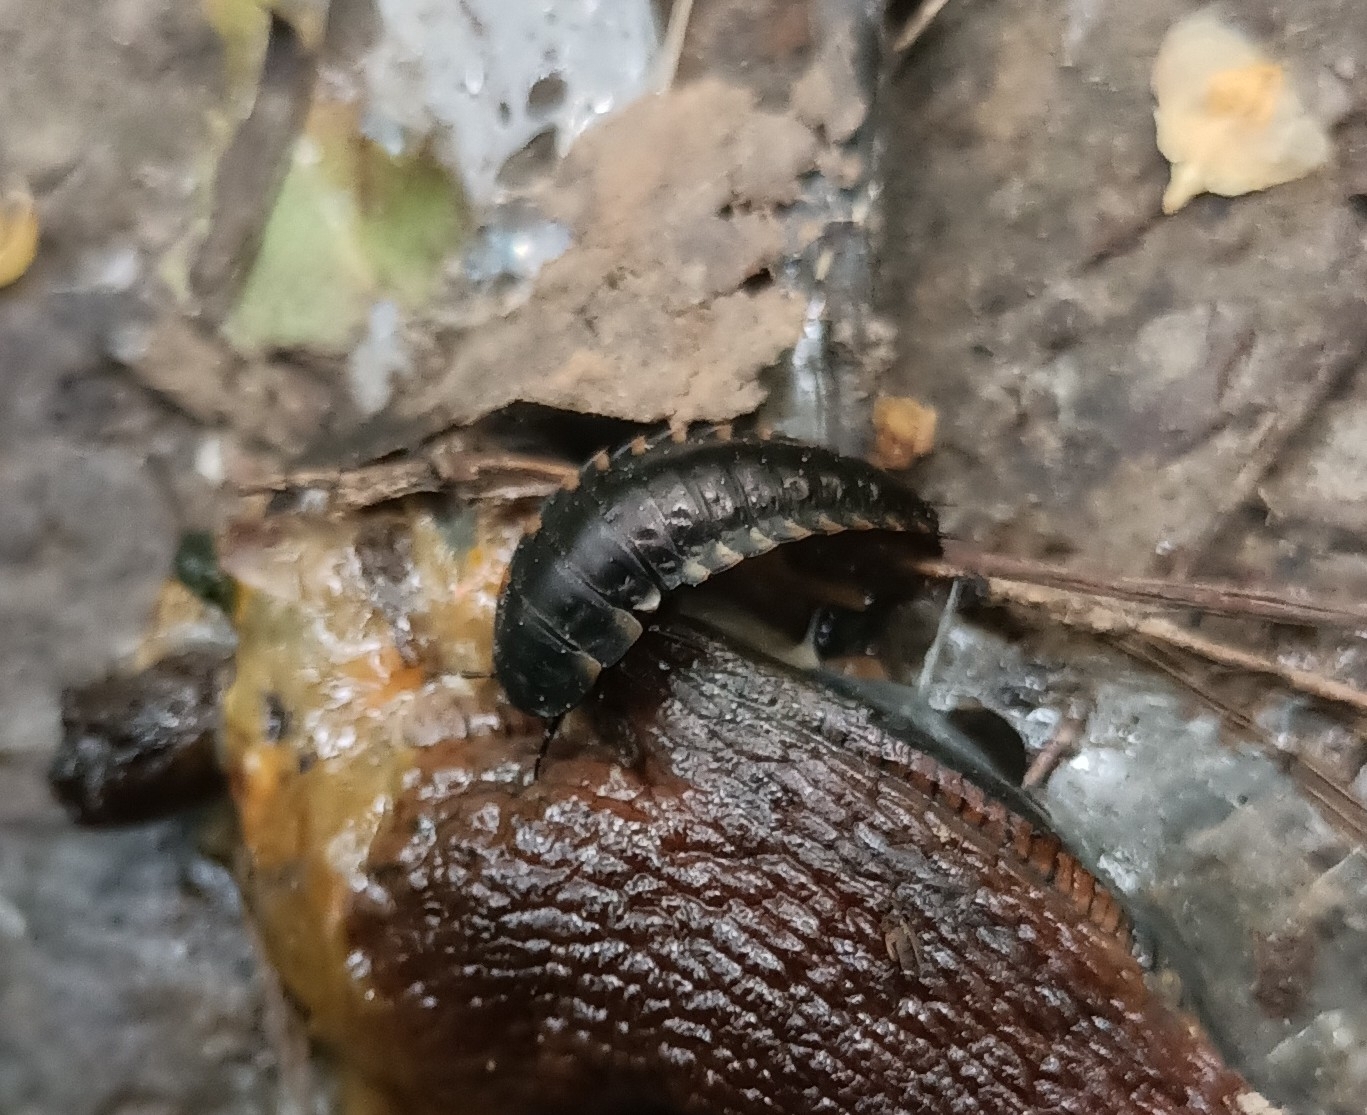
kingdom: Animalia
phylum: Arthropoda
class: Insecta
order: Coleoptera
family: Staphylinidae
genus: Silpha
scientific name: Silpha tristis
